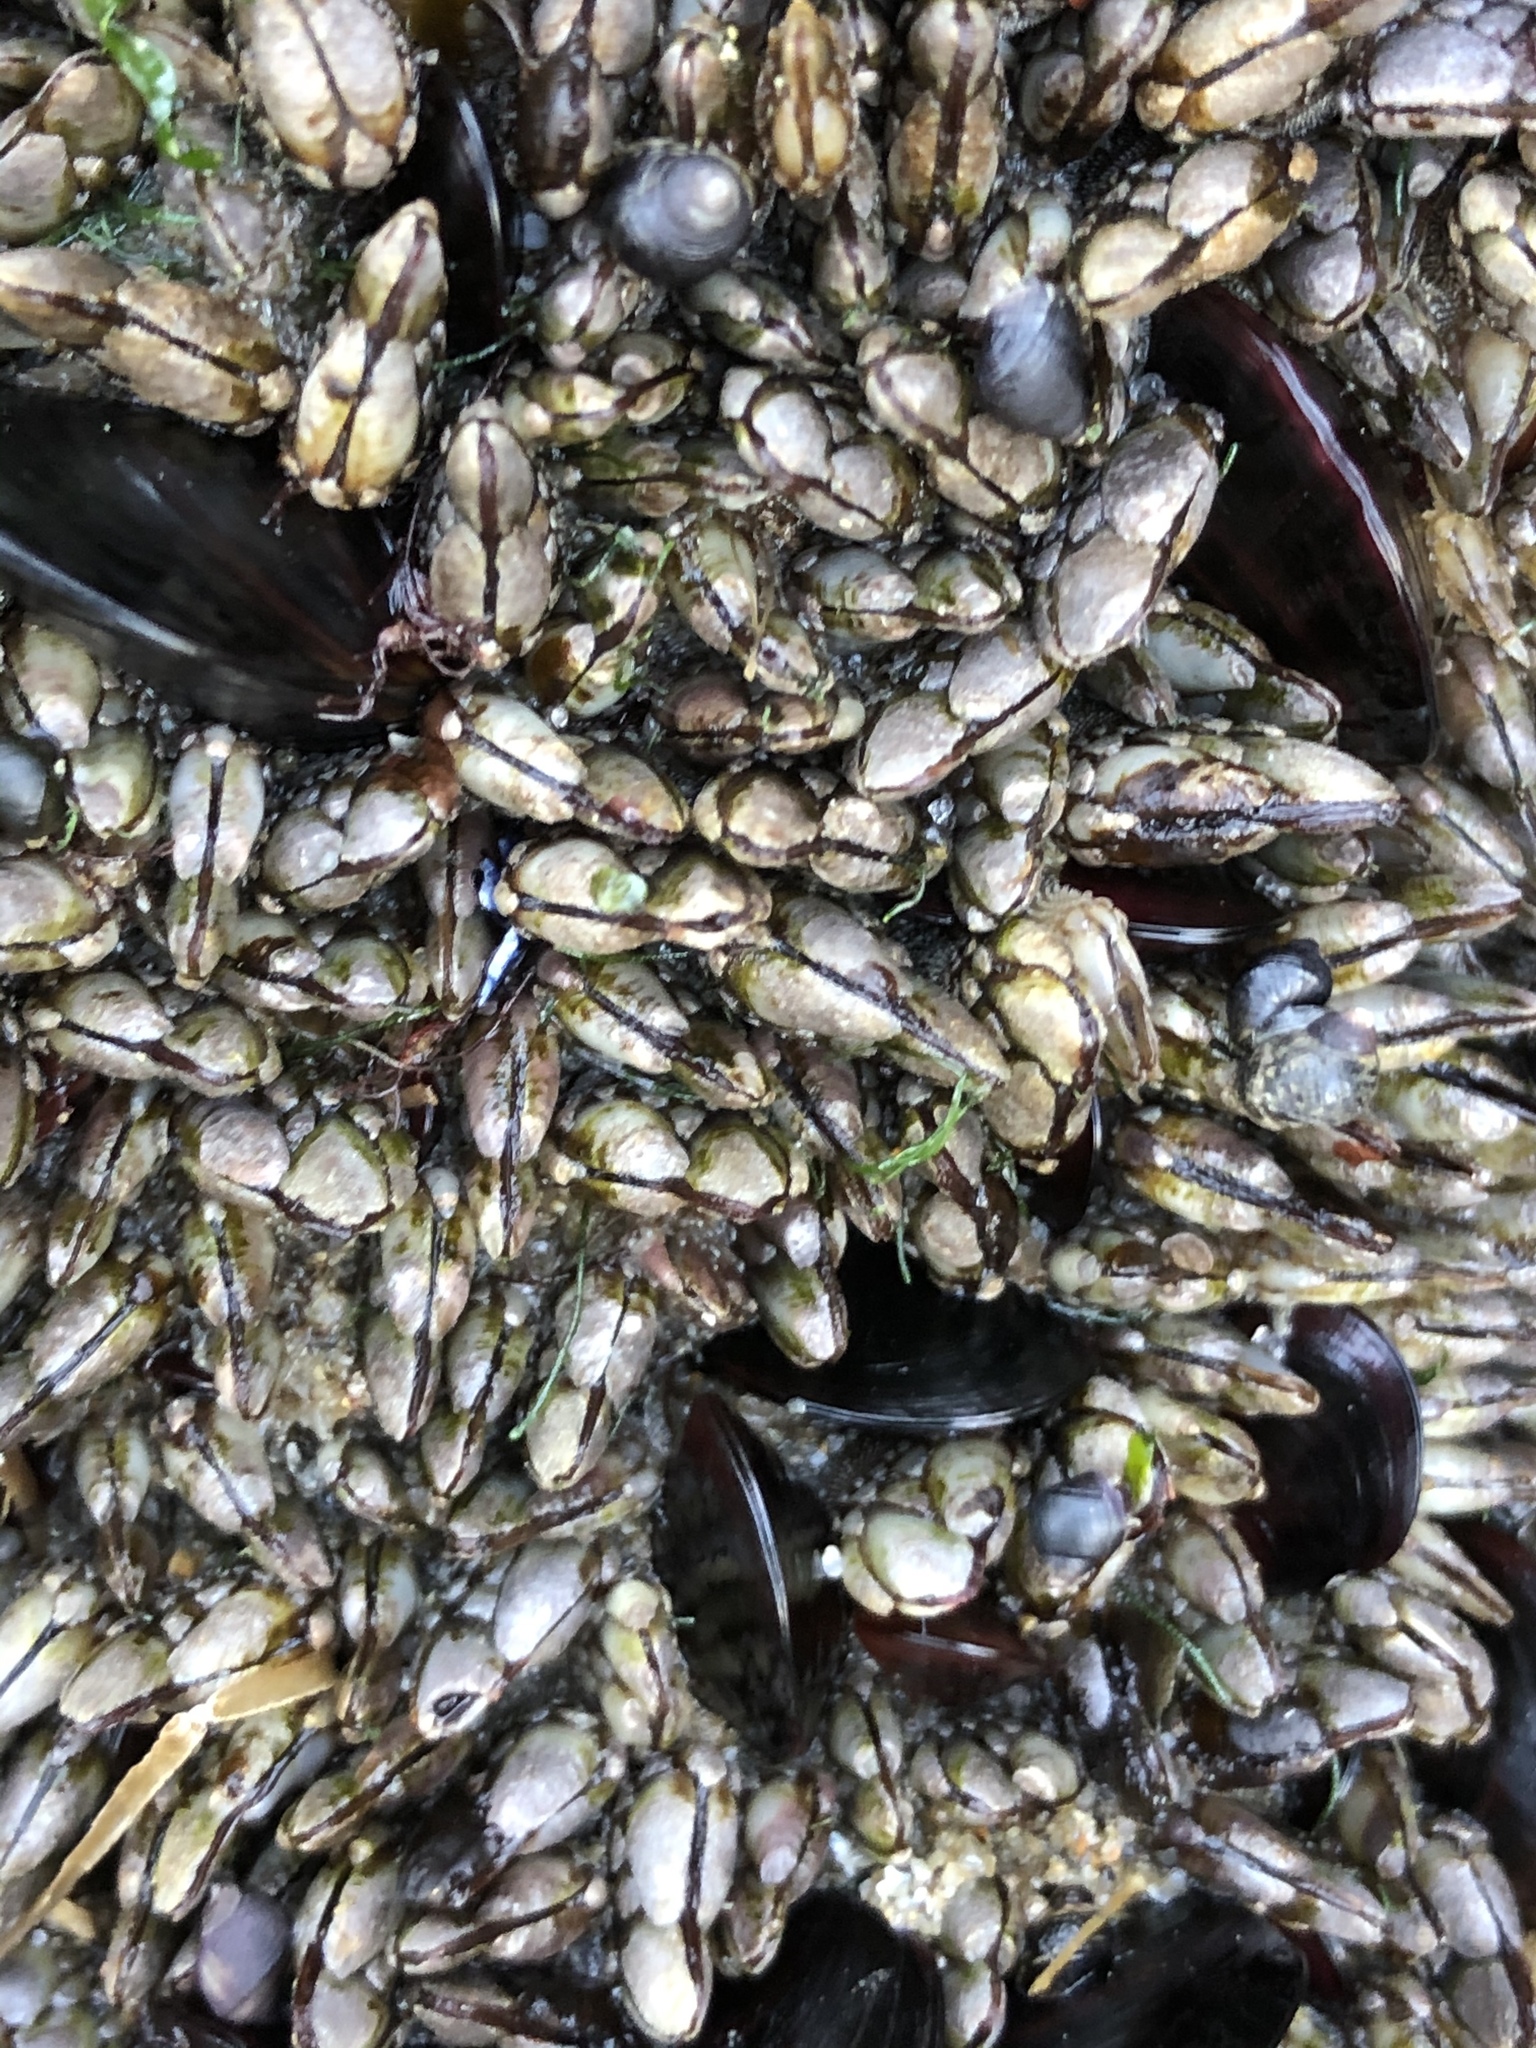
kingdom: Animalia
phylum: Arthropoda
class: Maxillopoda
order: Pedunculata
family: Pollicipedidae
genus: Pollicipes
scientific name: Pollicipes polymerus
